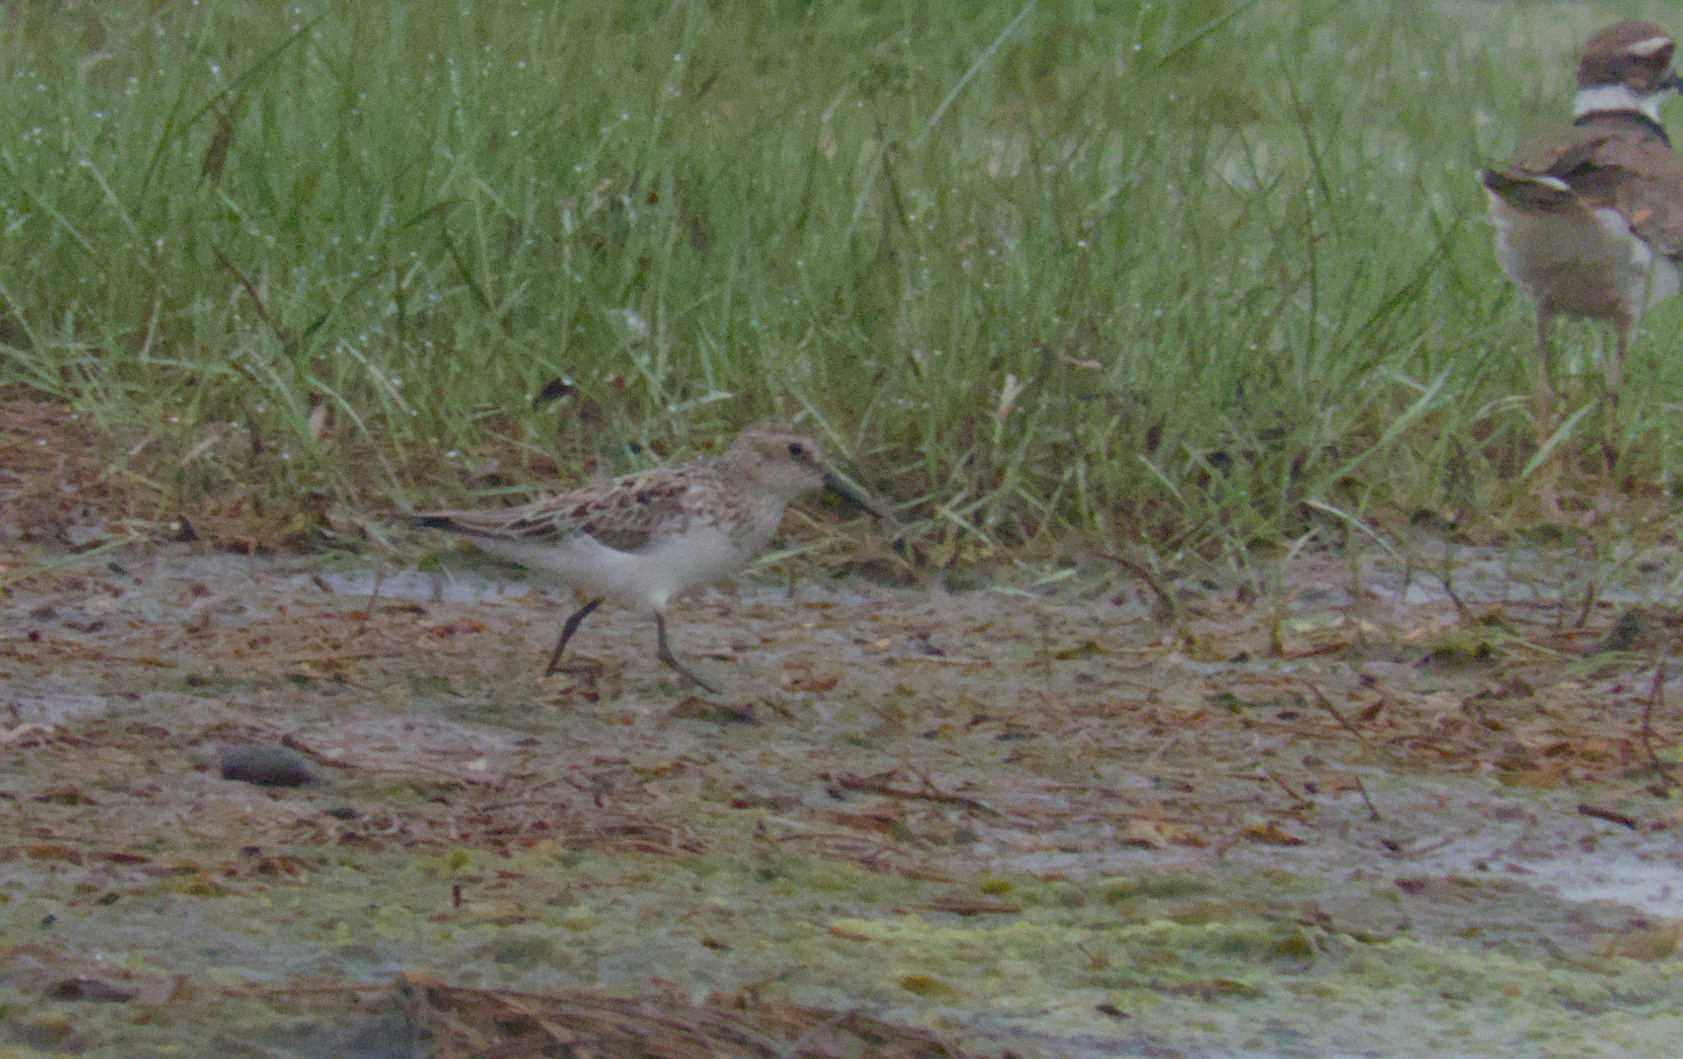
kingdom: Animalia
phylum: Chordata
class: Aves
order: Charadriiformes
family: Scolopacidae
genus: Calidris
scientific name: Calidris pusilla
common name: Semipalmated sandpiper
